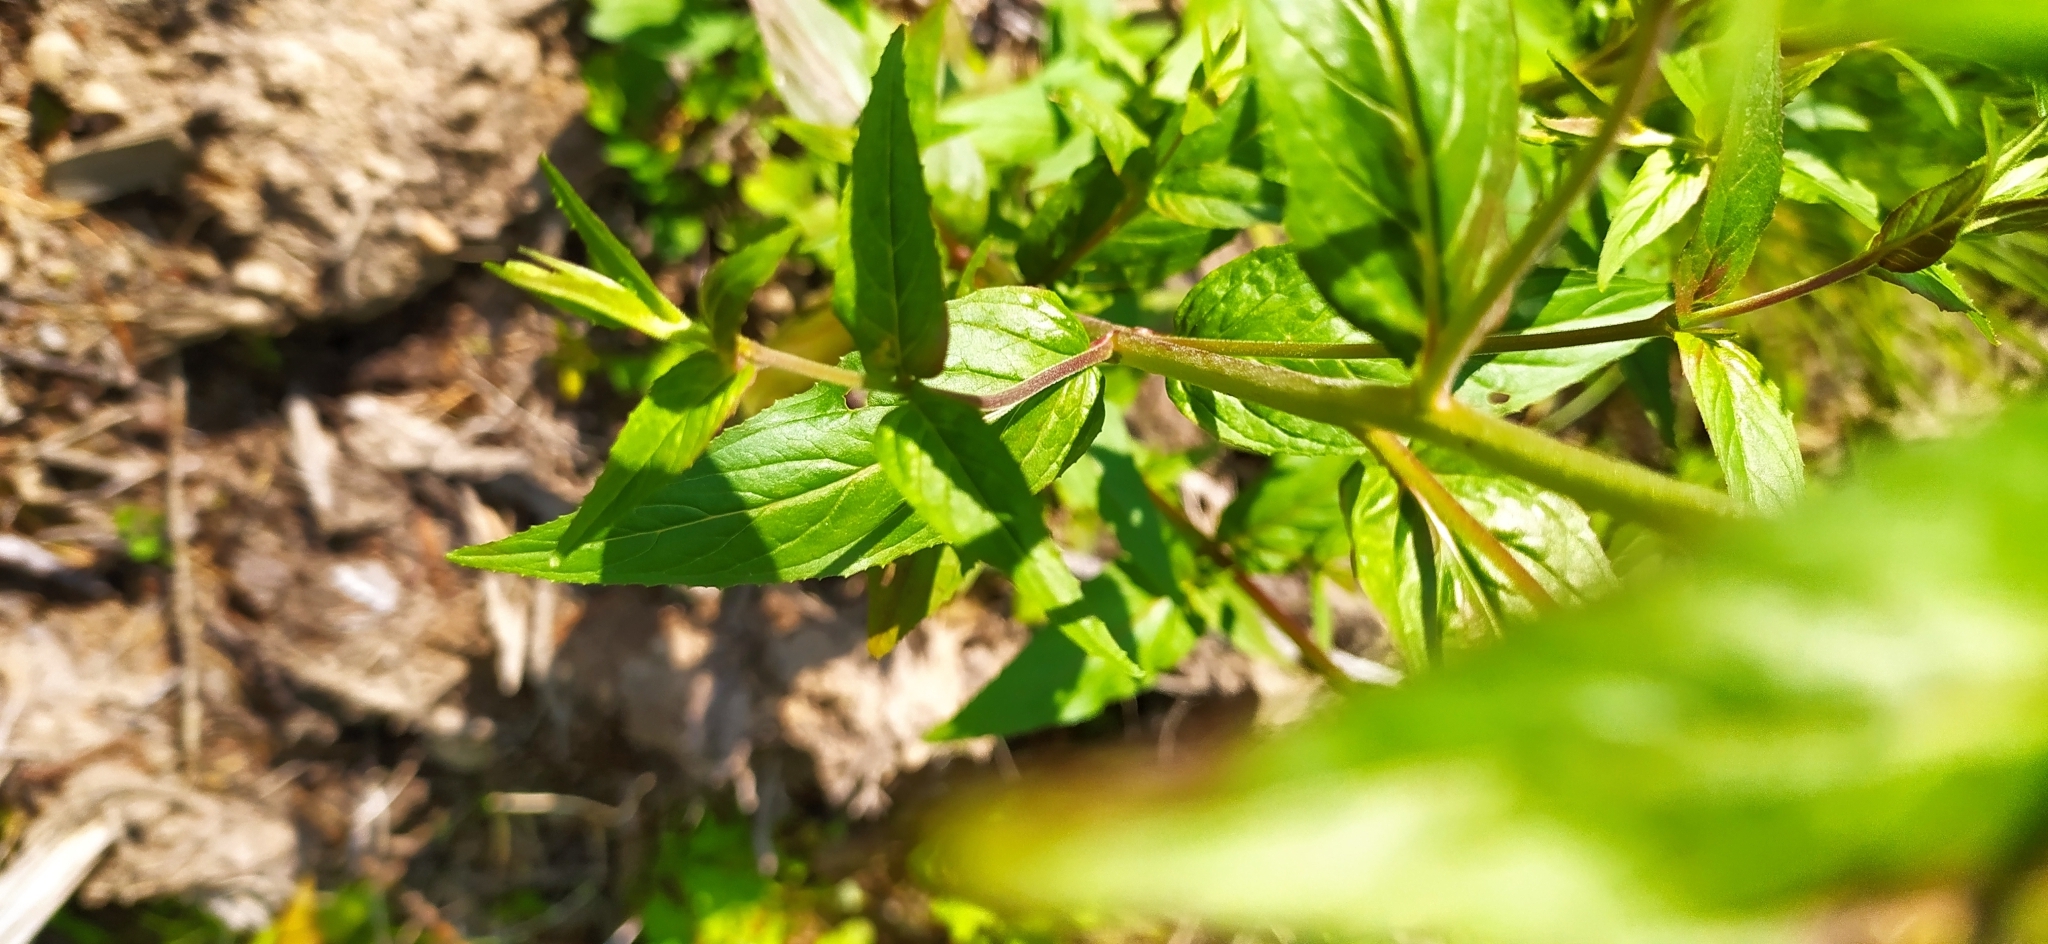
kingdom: Plantae
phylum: Tracheophyta
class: Magnoliopsida
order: Myrtales
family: Onagraceae
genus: Epilobium
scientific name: Epilobium ciliatum
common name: American willowherb
